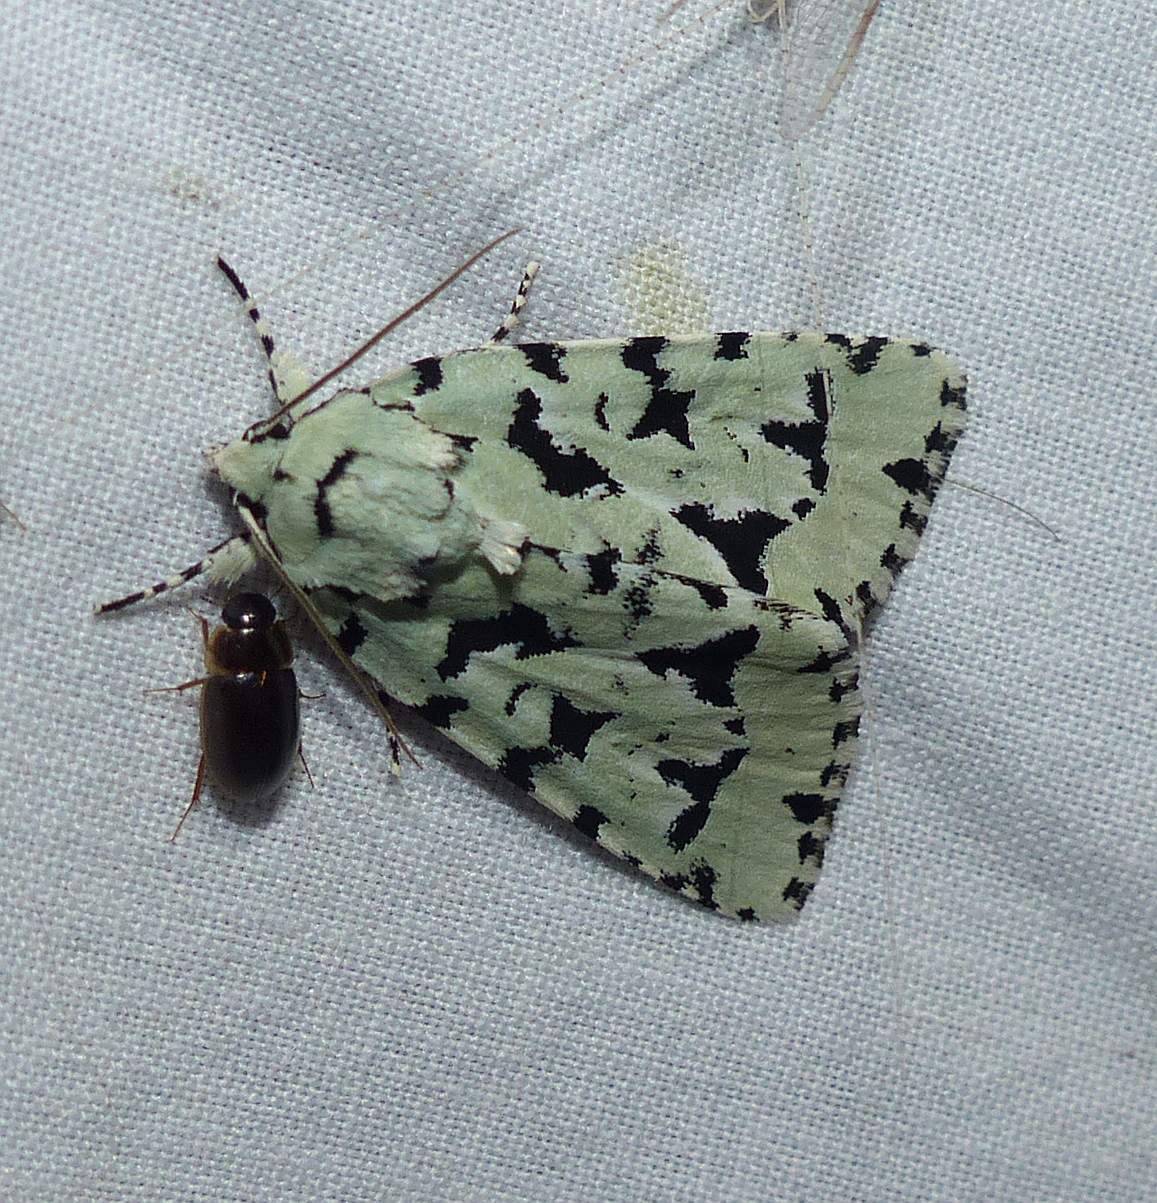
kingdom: Animalia
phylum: Arthropoda
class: Insecta
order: Lepidoptera
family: Noctuidae
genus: Acronicta
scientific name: Acronicta fallax
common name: Green marvel
